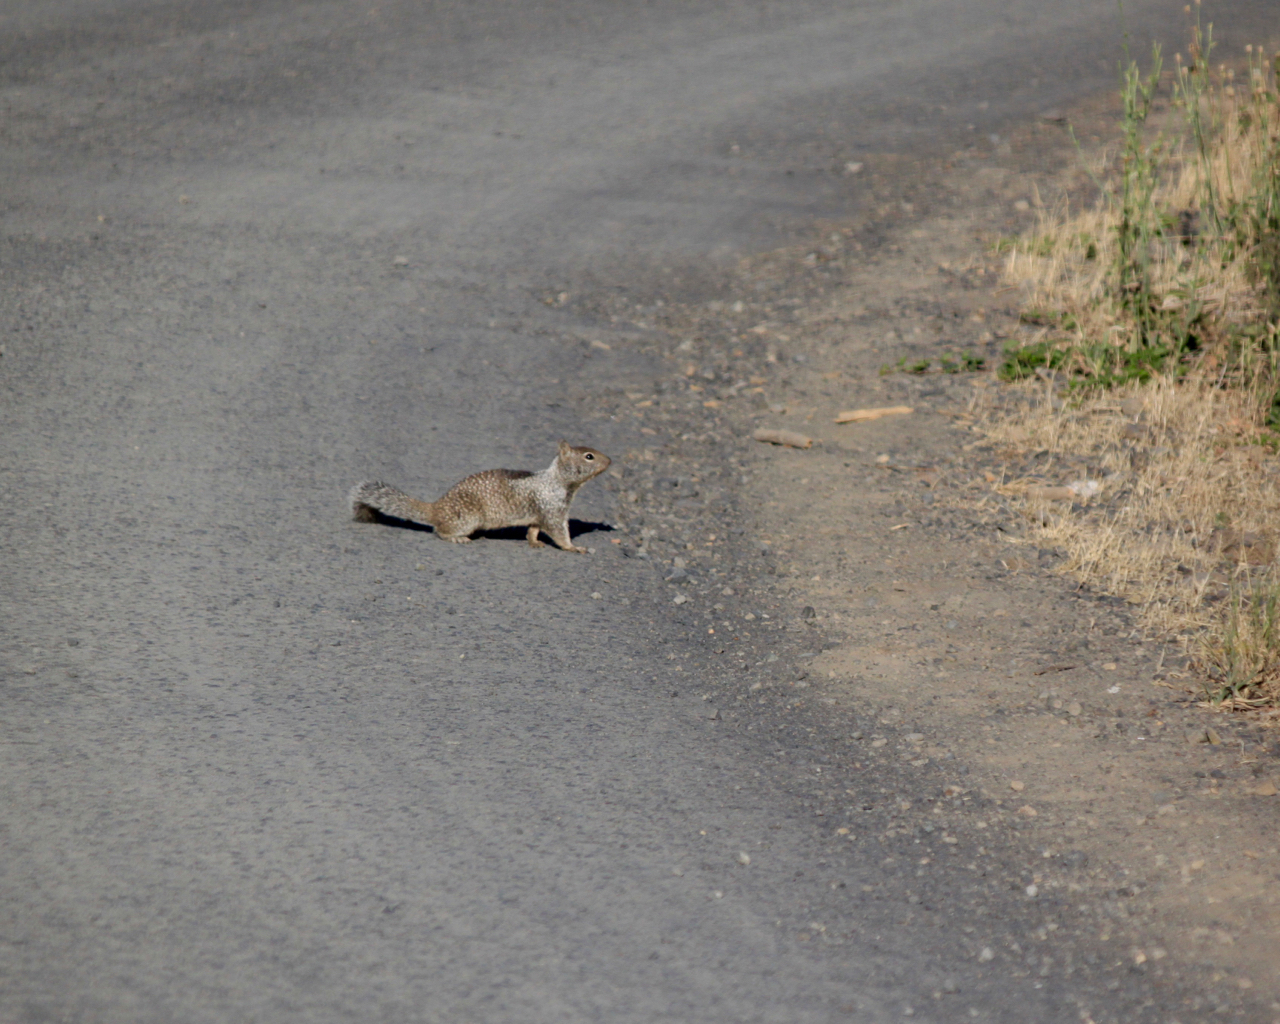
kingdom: Animalia
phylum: Chordata
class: Mammalia
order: Rodentia
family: Sciuridae
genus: Otospermophilus
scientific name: Otospermophilus beecheyi
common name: California ground squirrel
